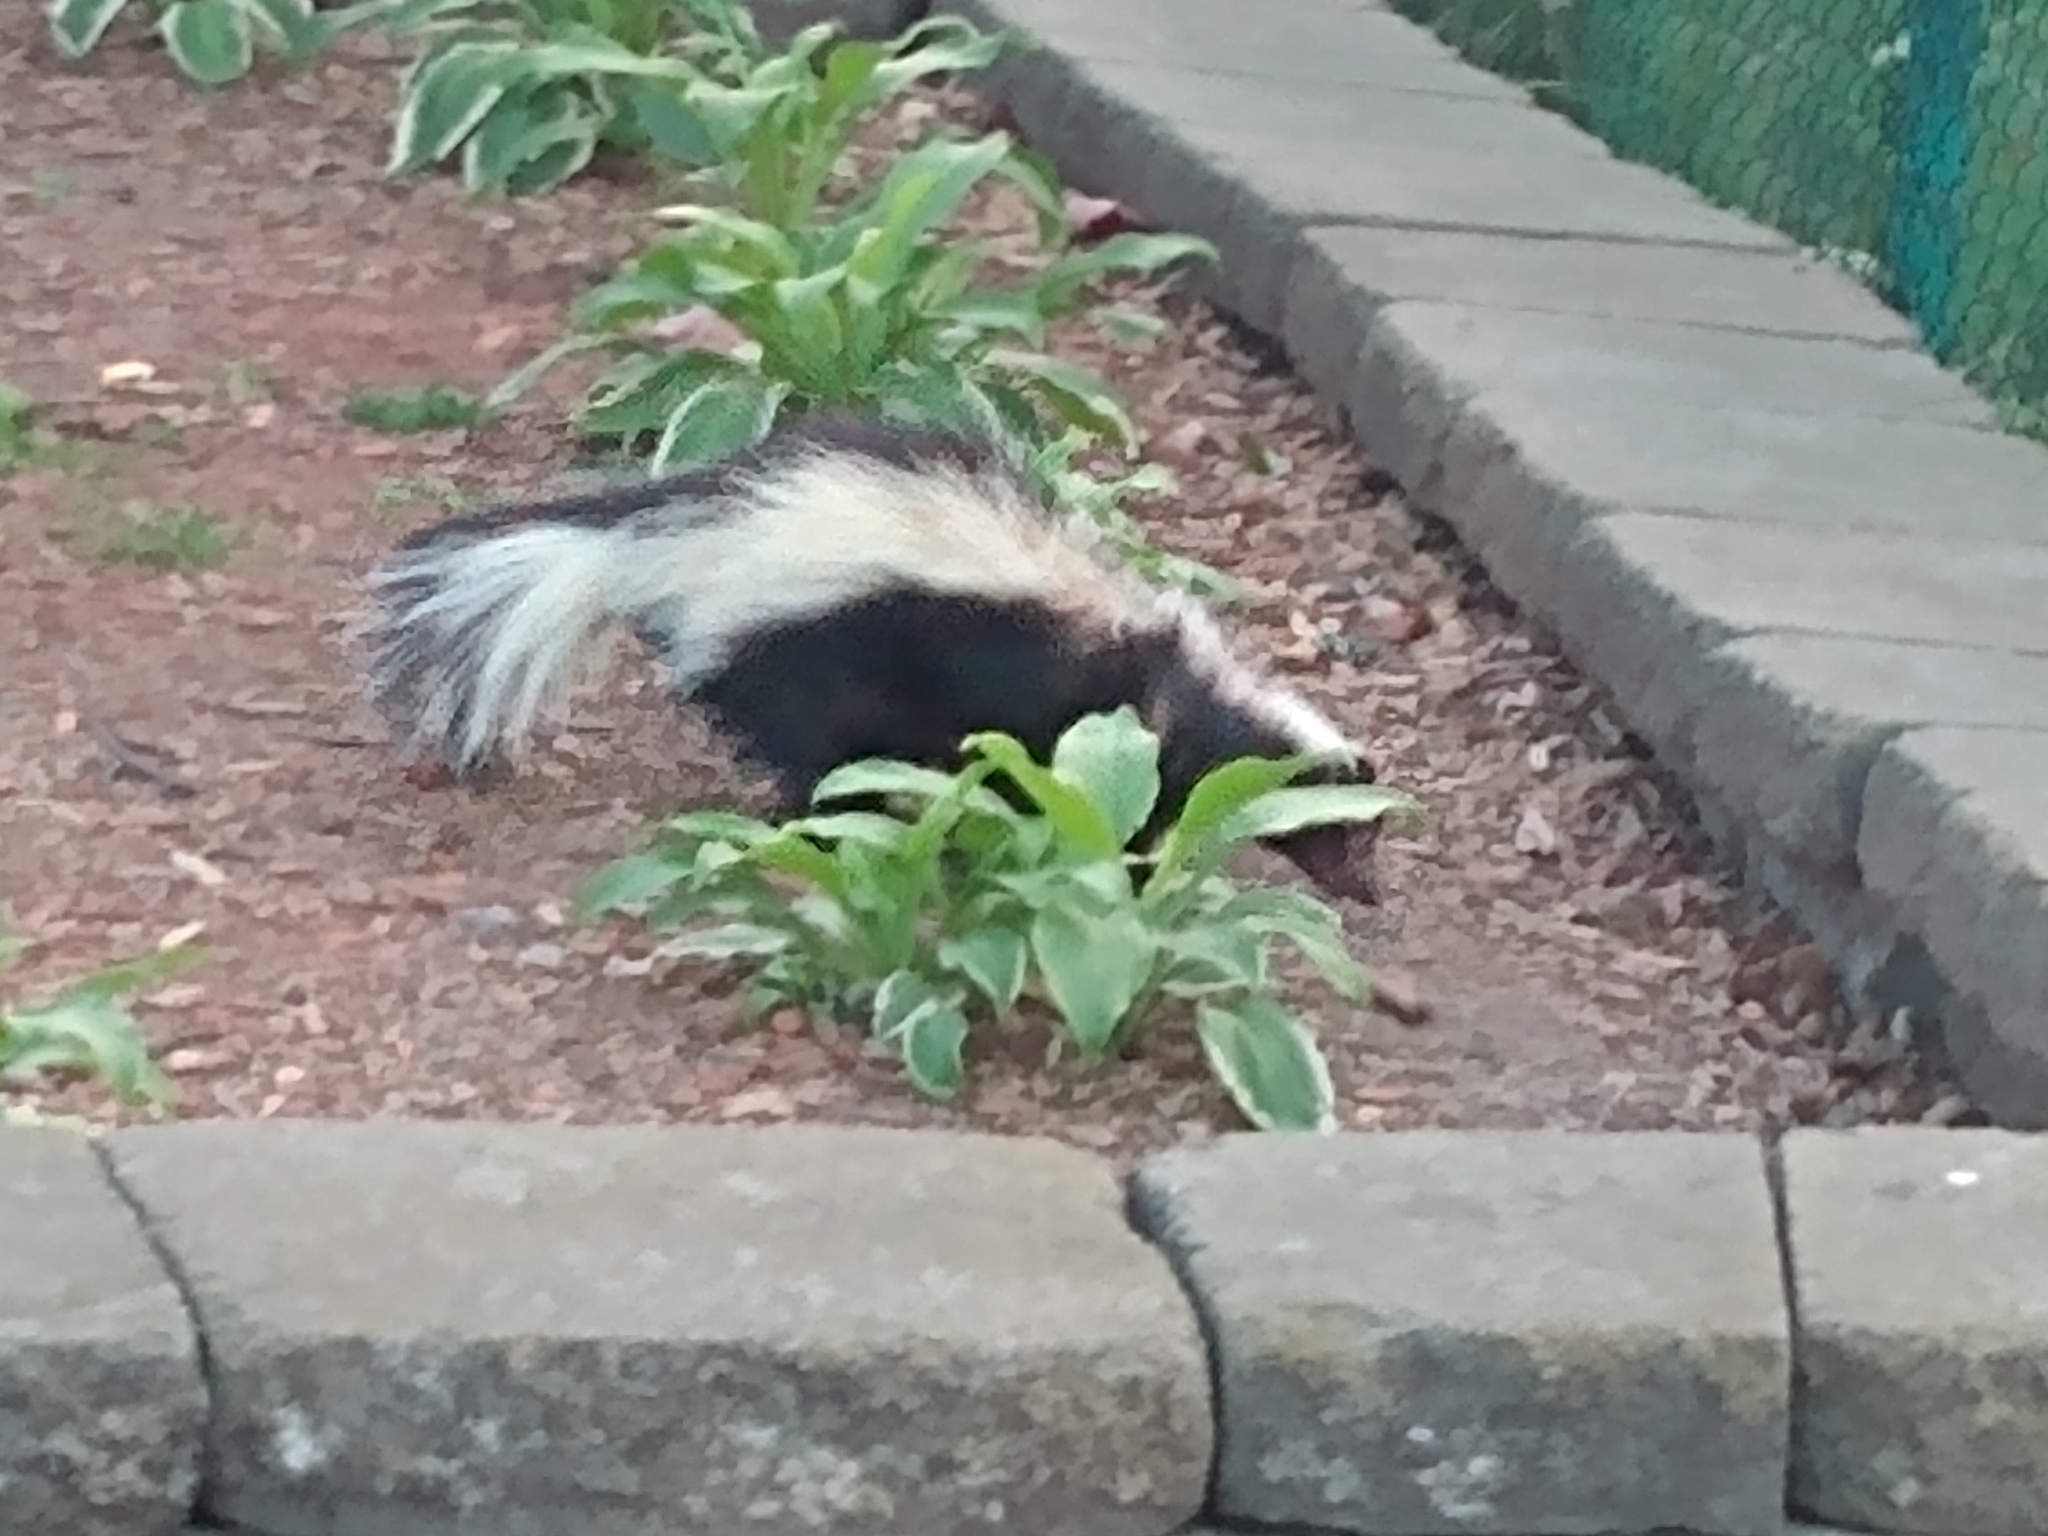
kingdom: Animalia
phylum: Chordata
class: Mammalia
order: Carnivora
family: Mephitidae
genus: Mephitis
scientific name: Mephitis mephitis
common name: Striped skunk
